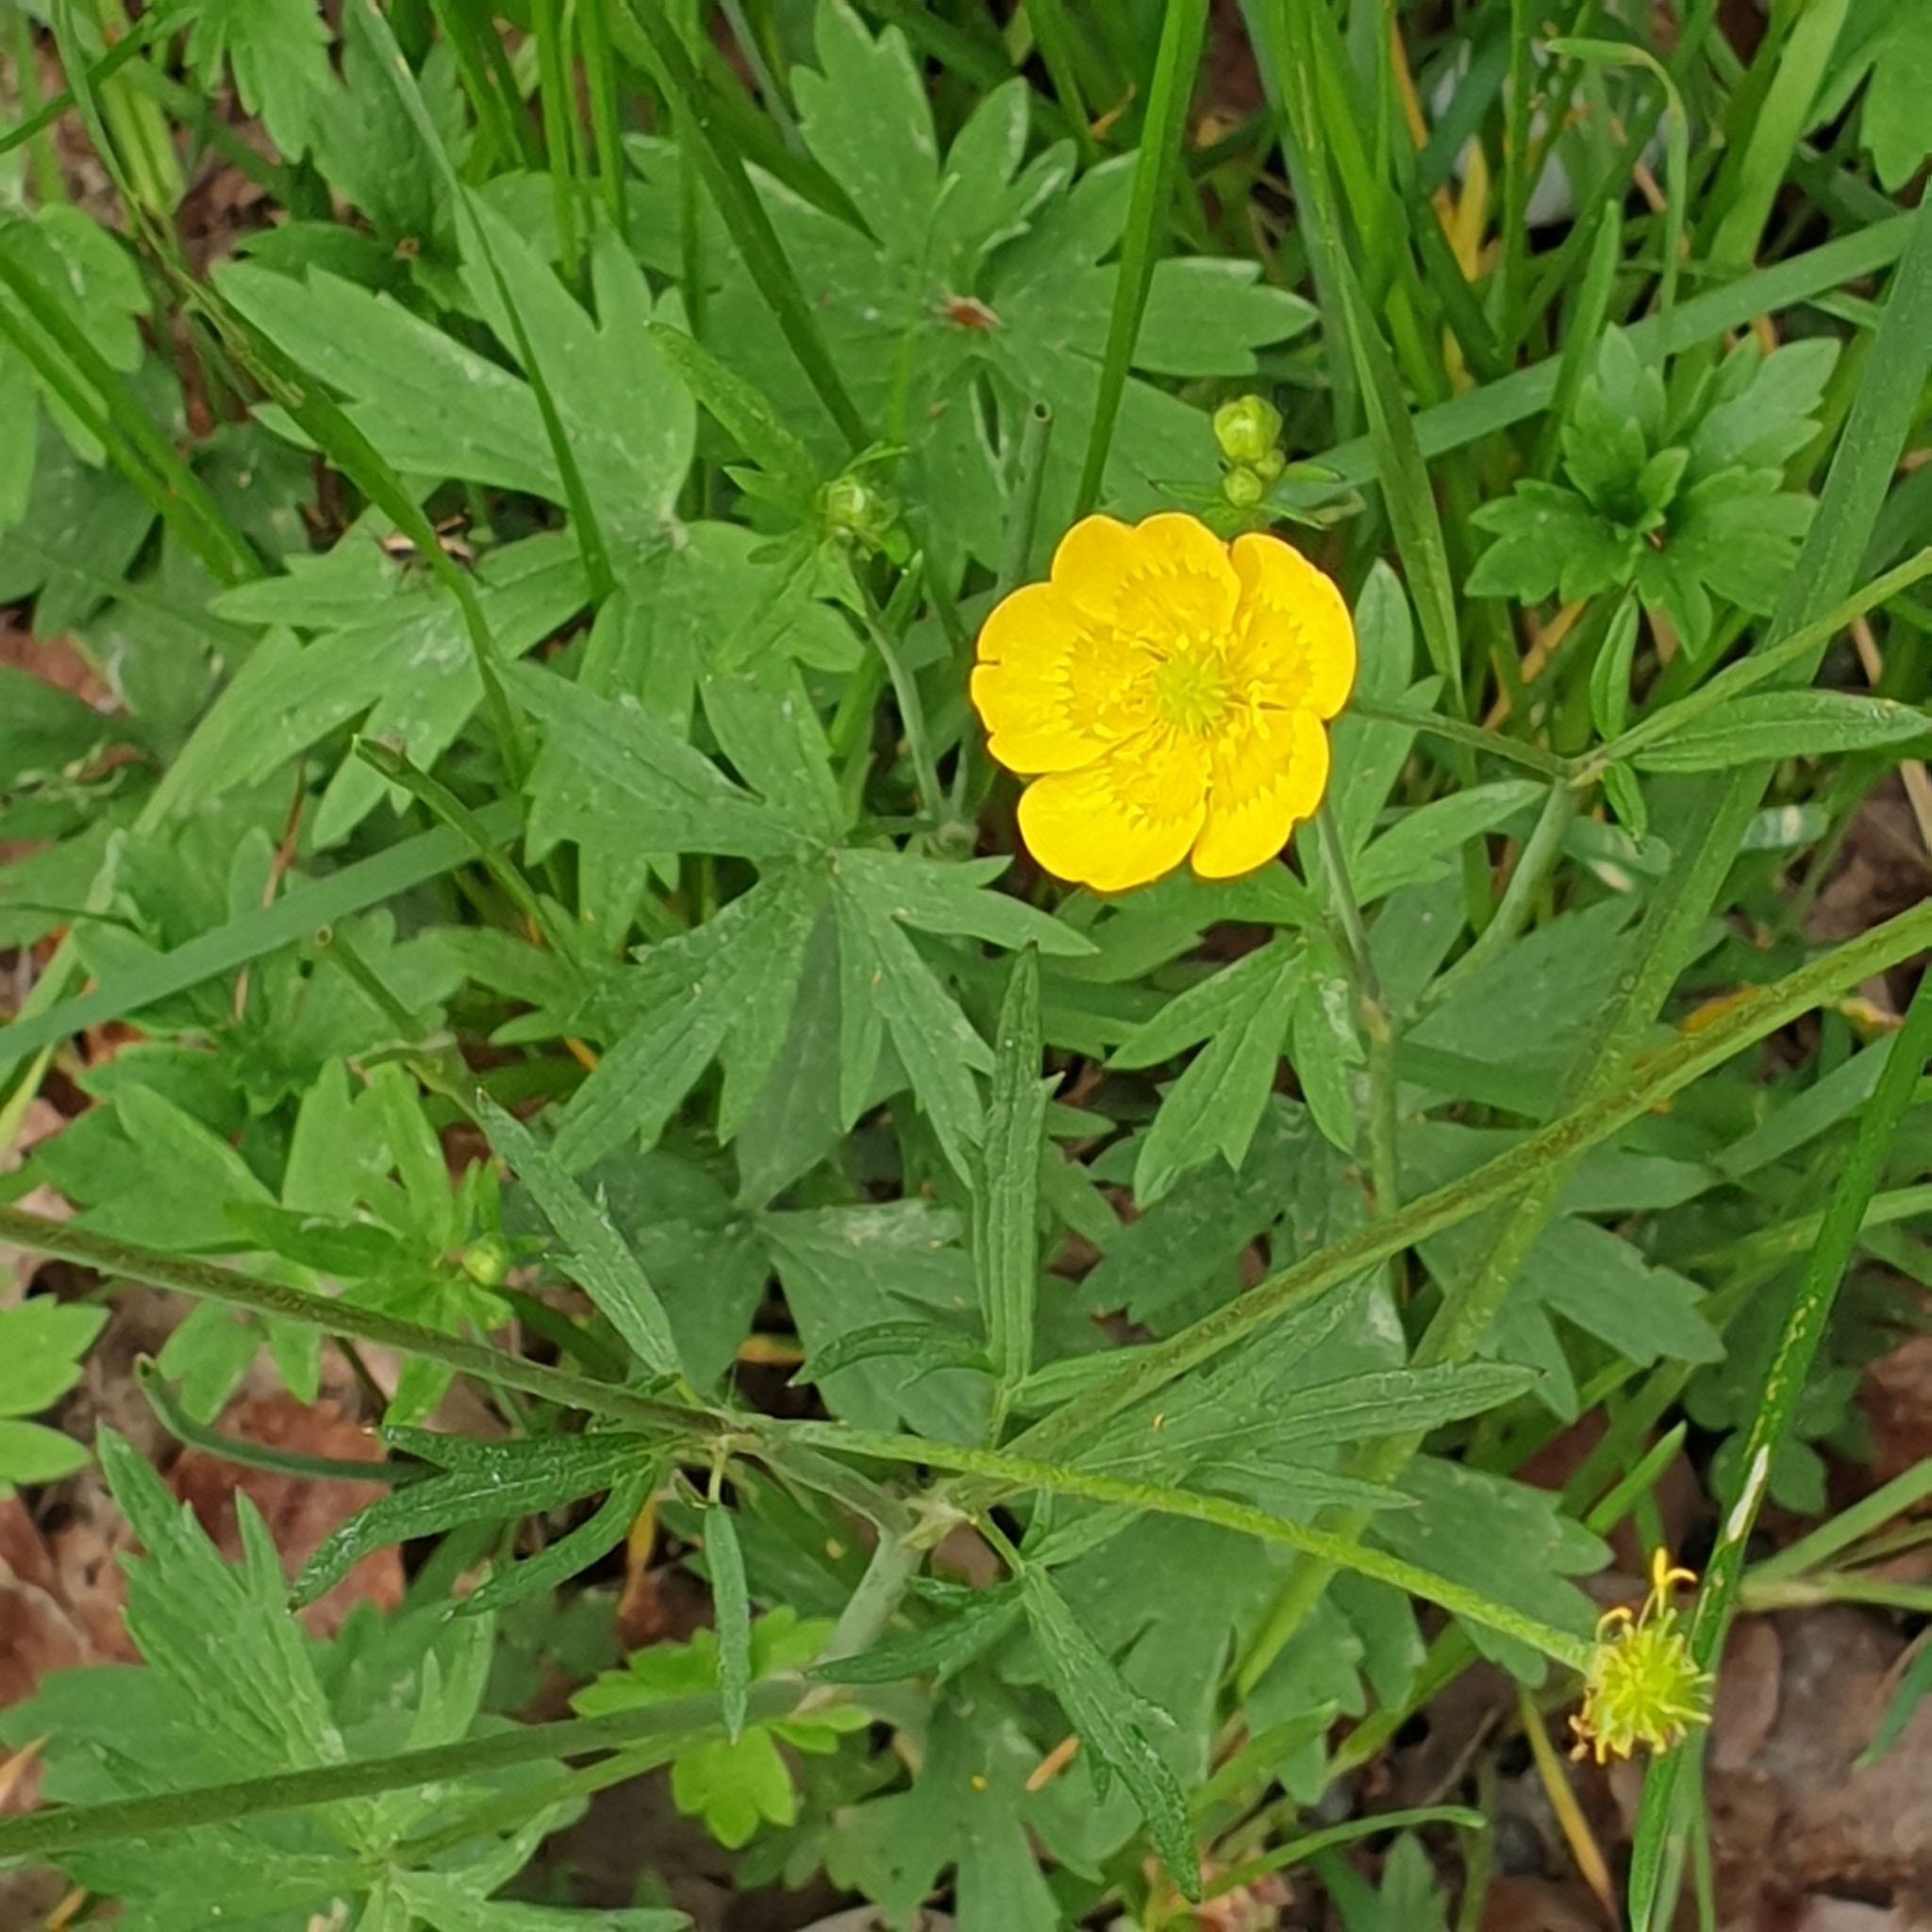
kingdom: Plantae
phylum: Tracheophyta
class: Magnoliopsida
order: Ranunculales
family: Ranunculaceae
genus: Ranunculus
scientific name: Ranunculus acris
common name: Meadow buttercup
